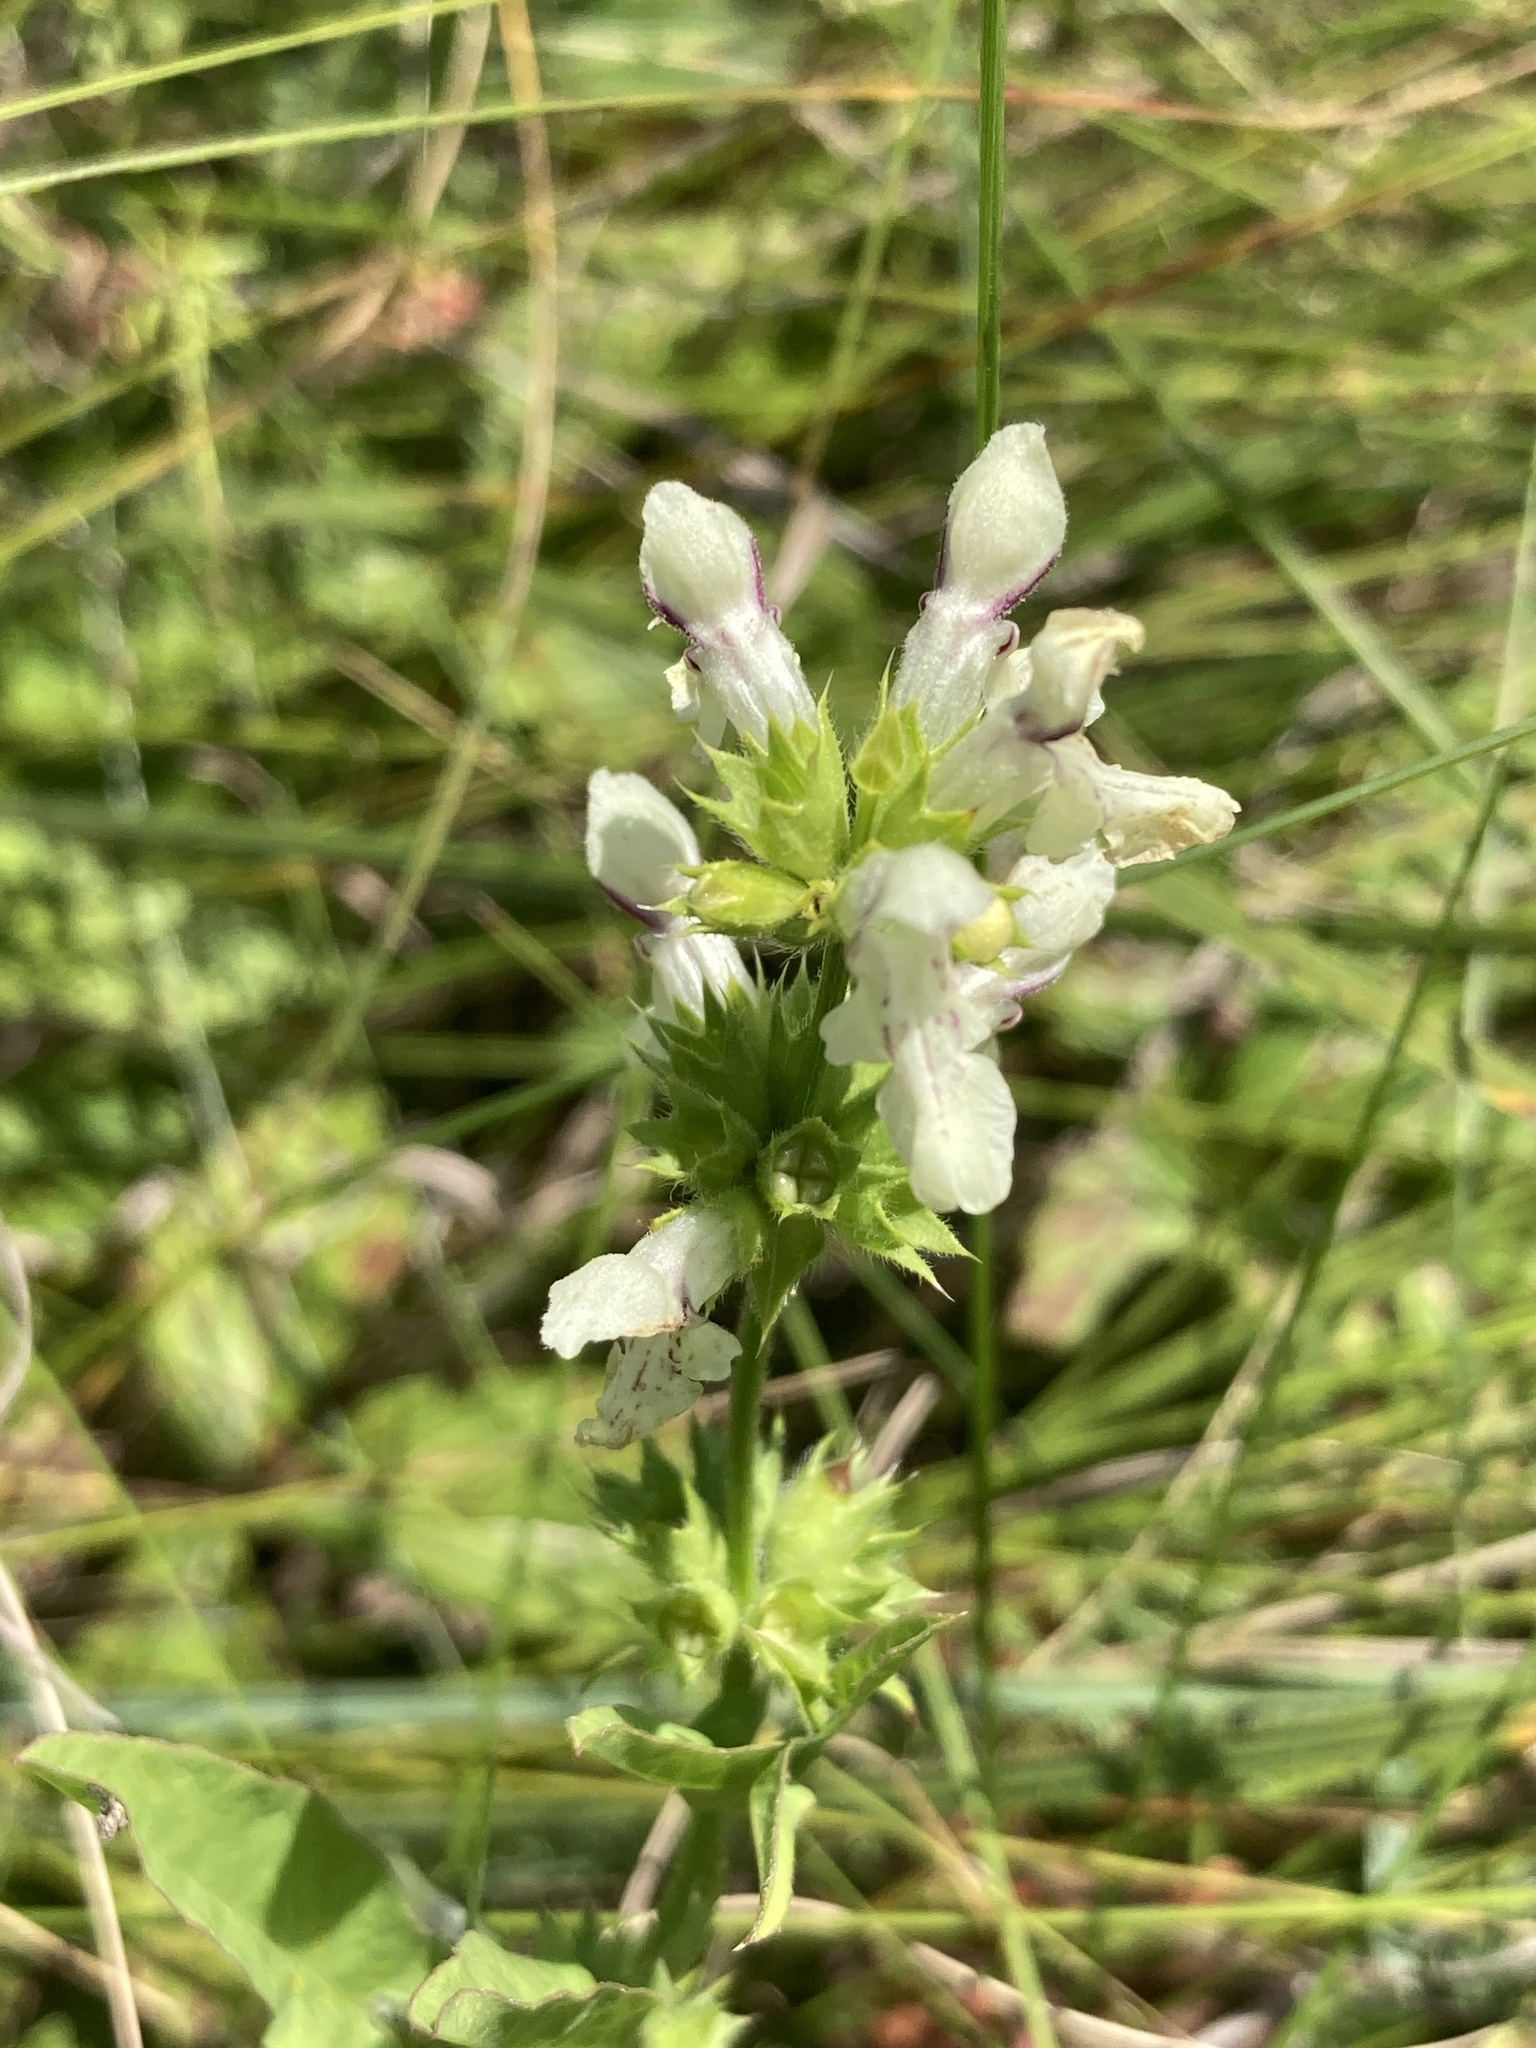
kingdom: Plantae
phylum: Tracheophyta
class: Magnoliopsida
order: Lamiales
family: Lamiaceae
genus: Stachys
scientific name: Stachys recta
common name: Perennial yellow-woundwort
